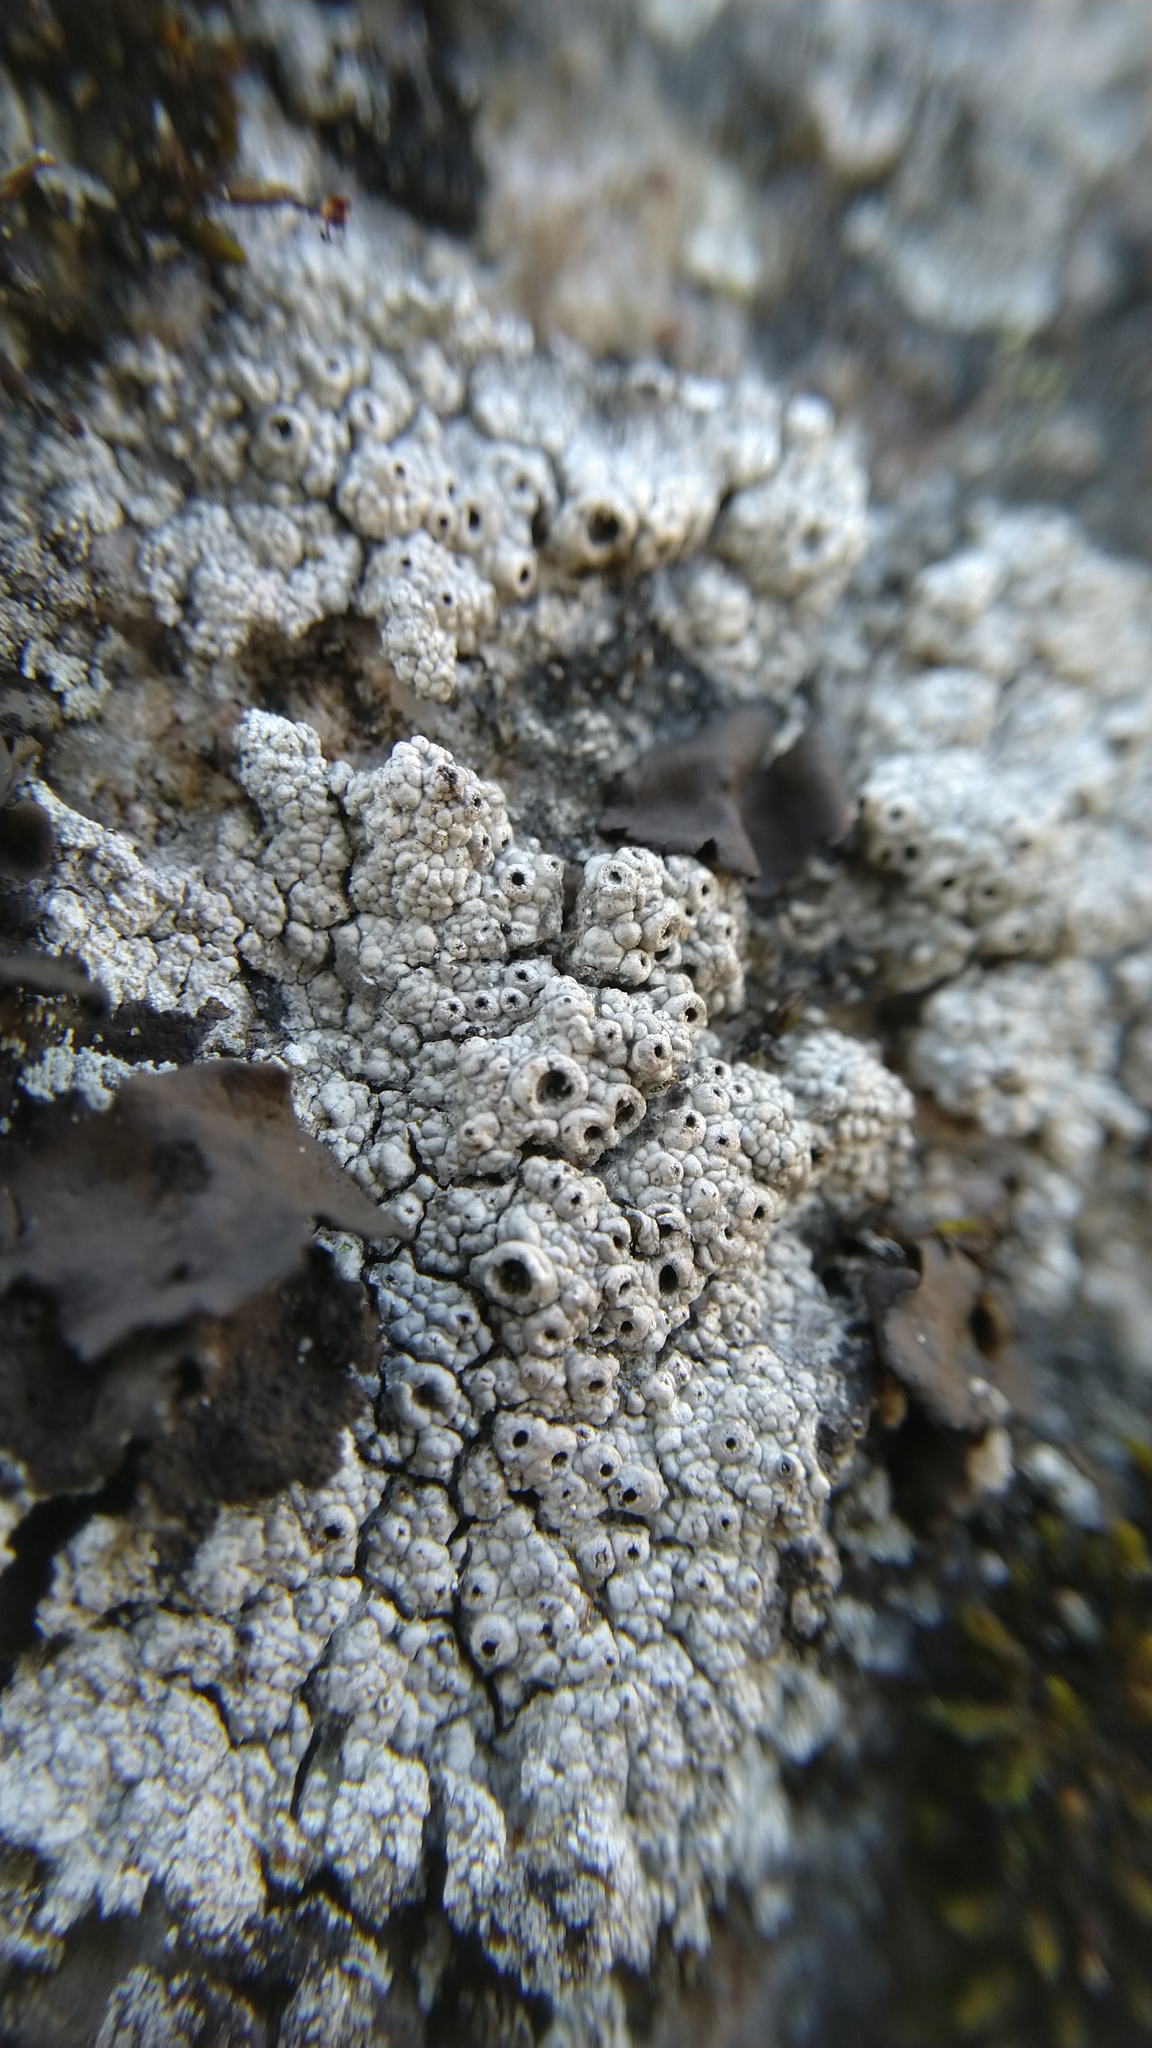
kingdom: Fungi
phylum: Ascomycota
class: Lecanoromycetes
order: Ostropales
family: Graphidaceae
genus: Diploschistes
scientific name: Diploschistes scruposus
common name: Crater lichen
